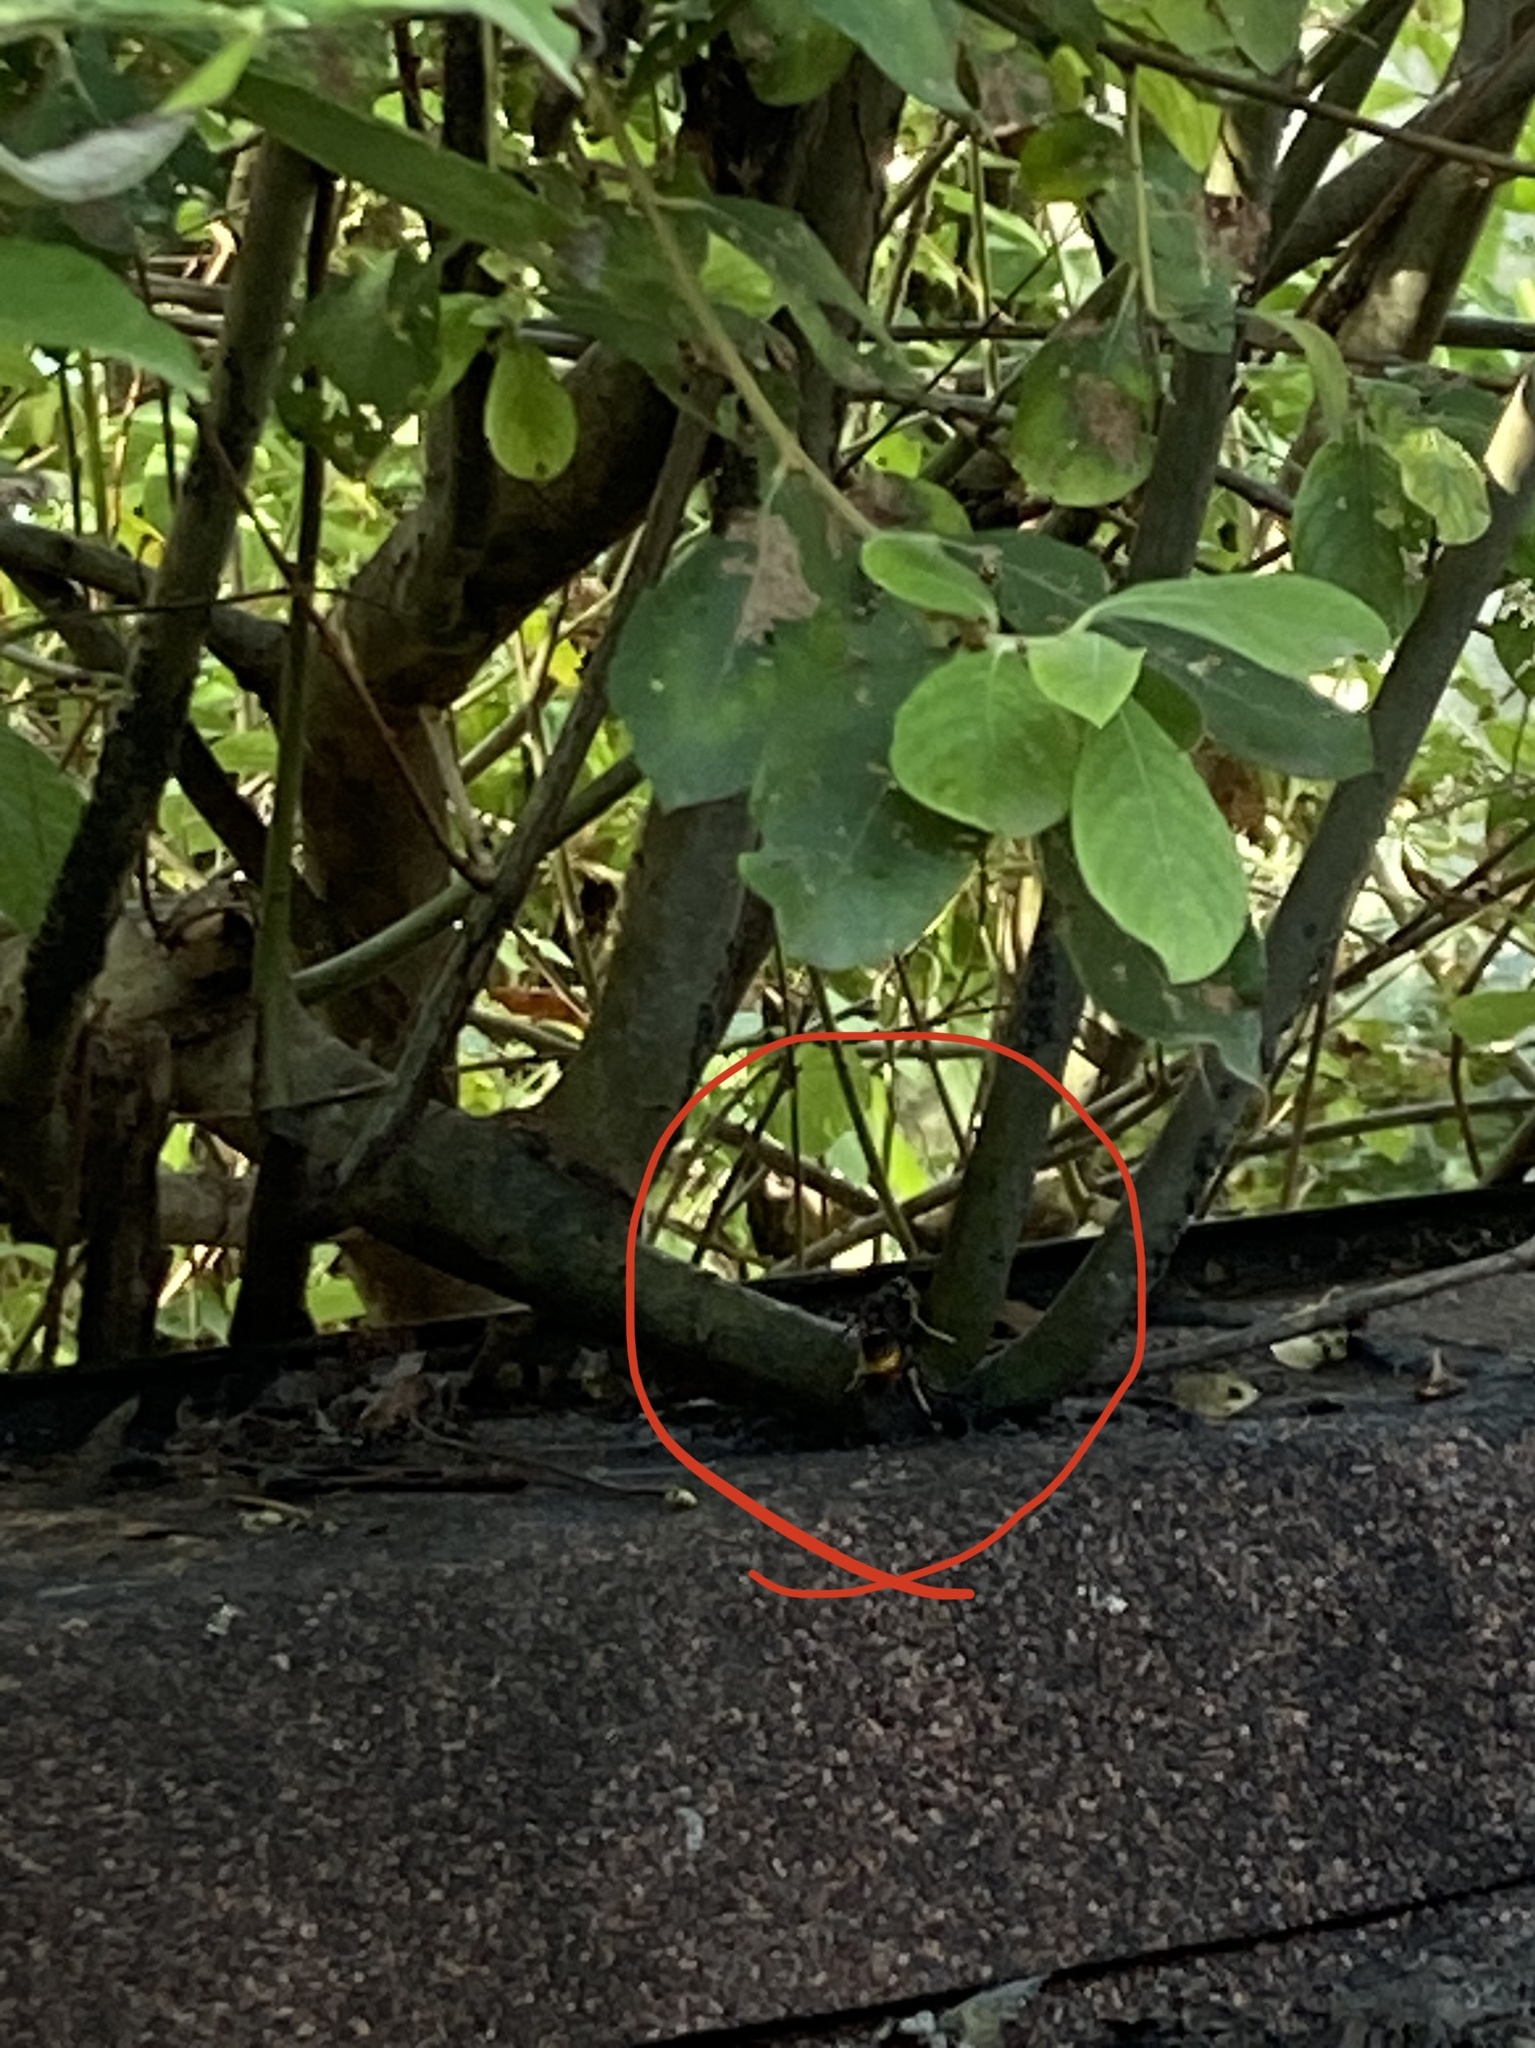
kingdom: Animalia
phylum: Arthropoda
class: Insecta
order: Hymenoptera
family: Vespidae
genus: Vespa
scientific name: Vespa velutina
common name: Asian hornet
